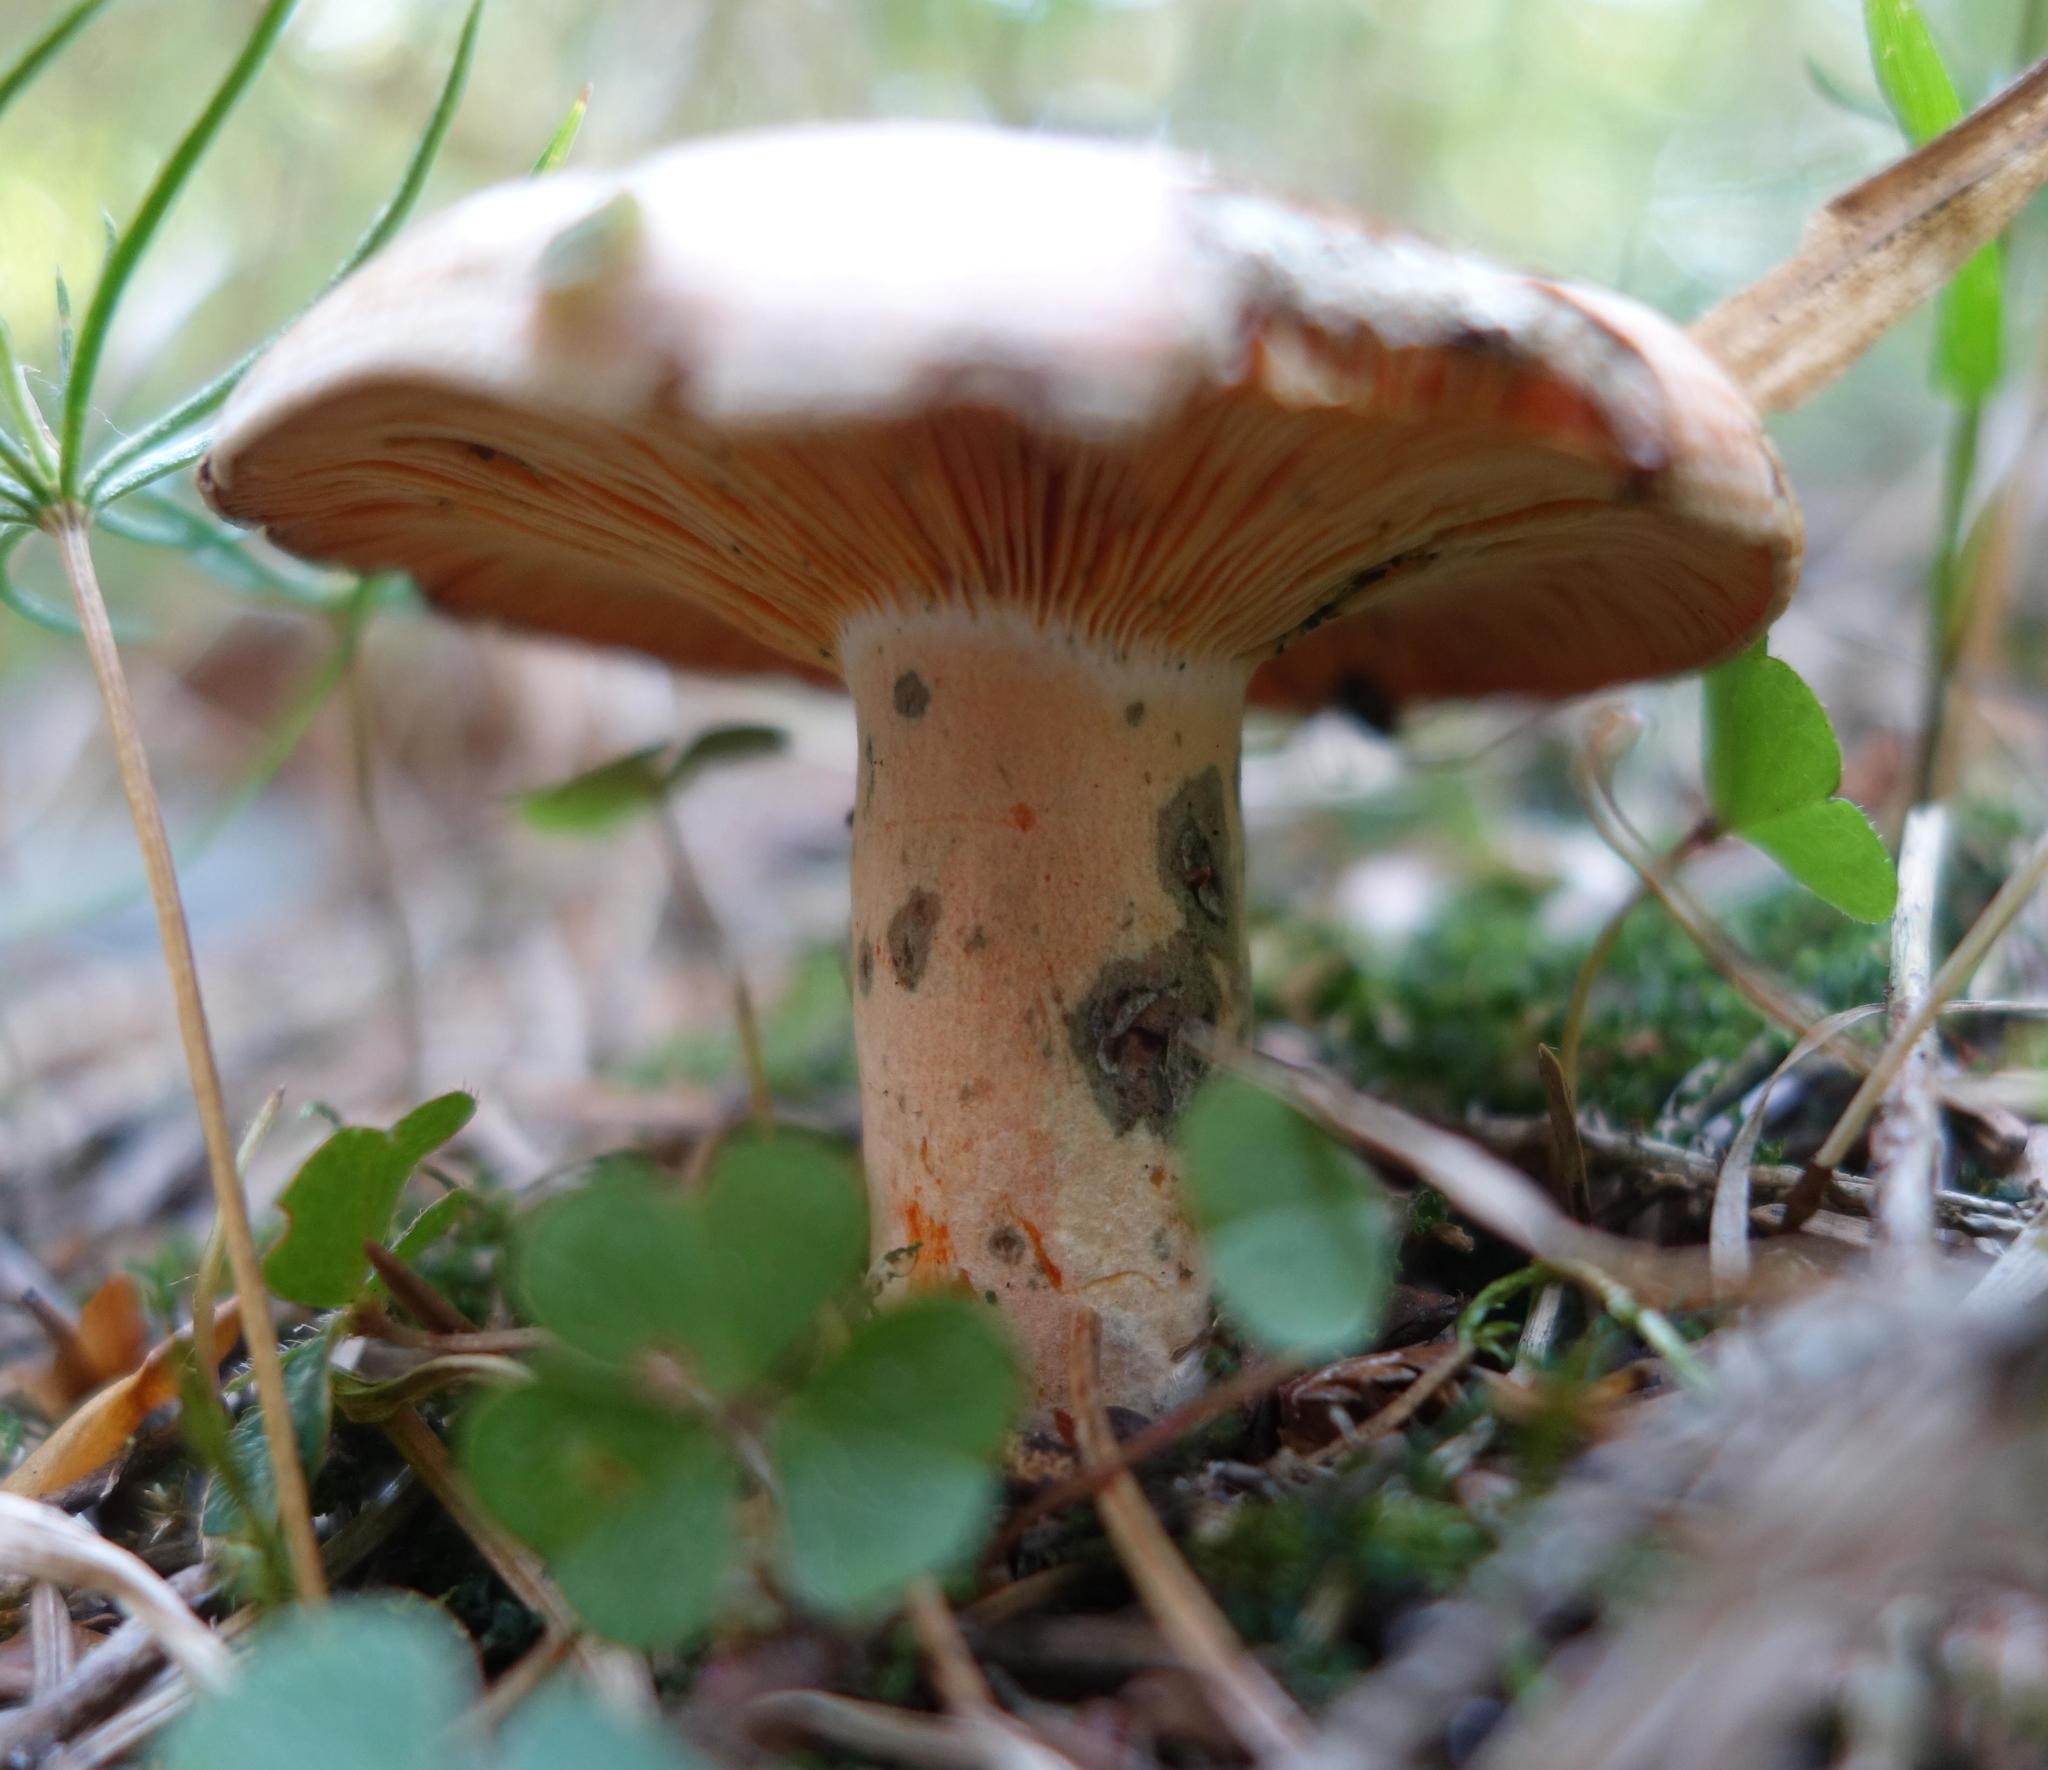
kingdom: Fungi
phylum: Basidiomycota
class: Agaricomycetes
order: Russulales
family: Russulaceae
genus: Lactarius
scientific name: Lactarius deterrimus
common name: False saffron milkcap
